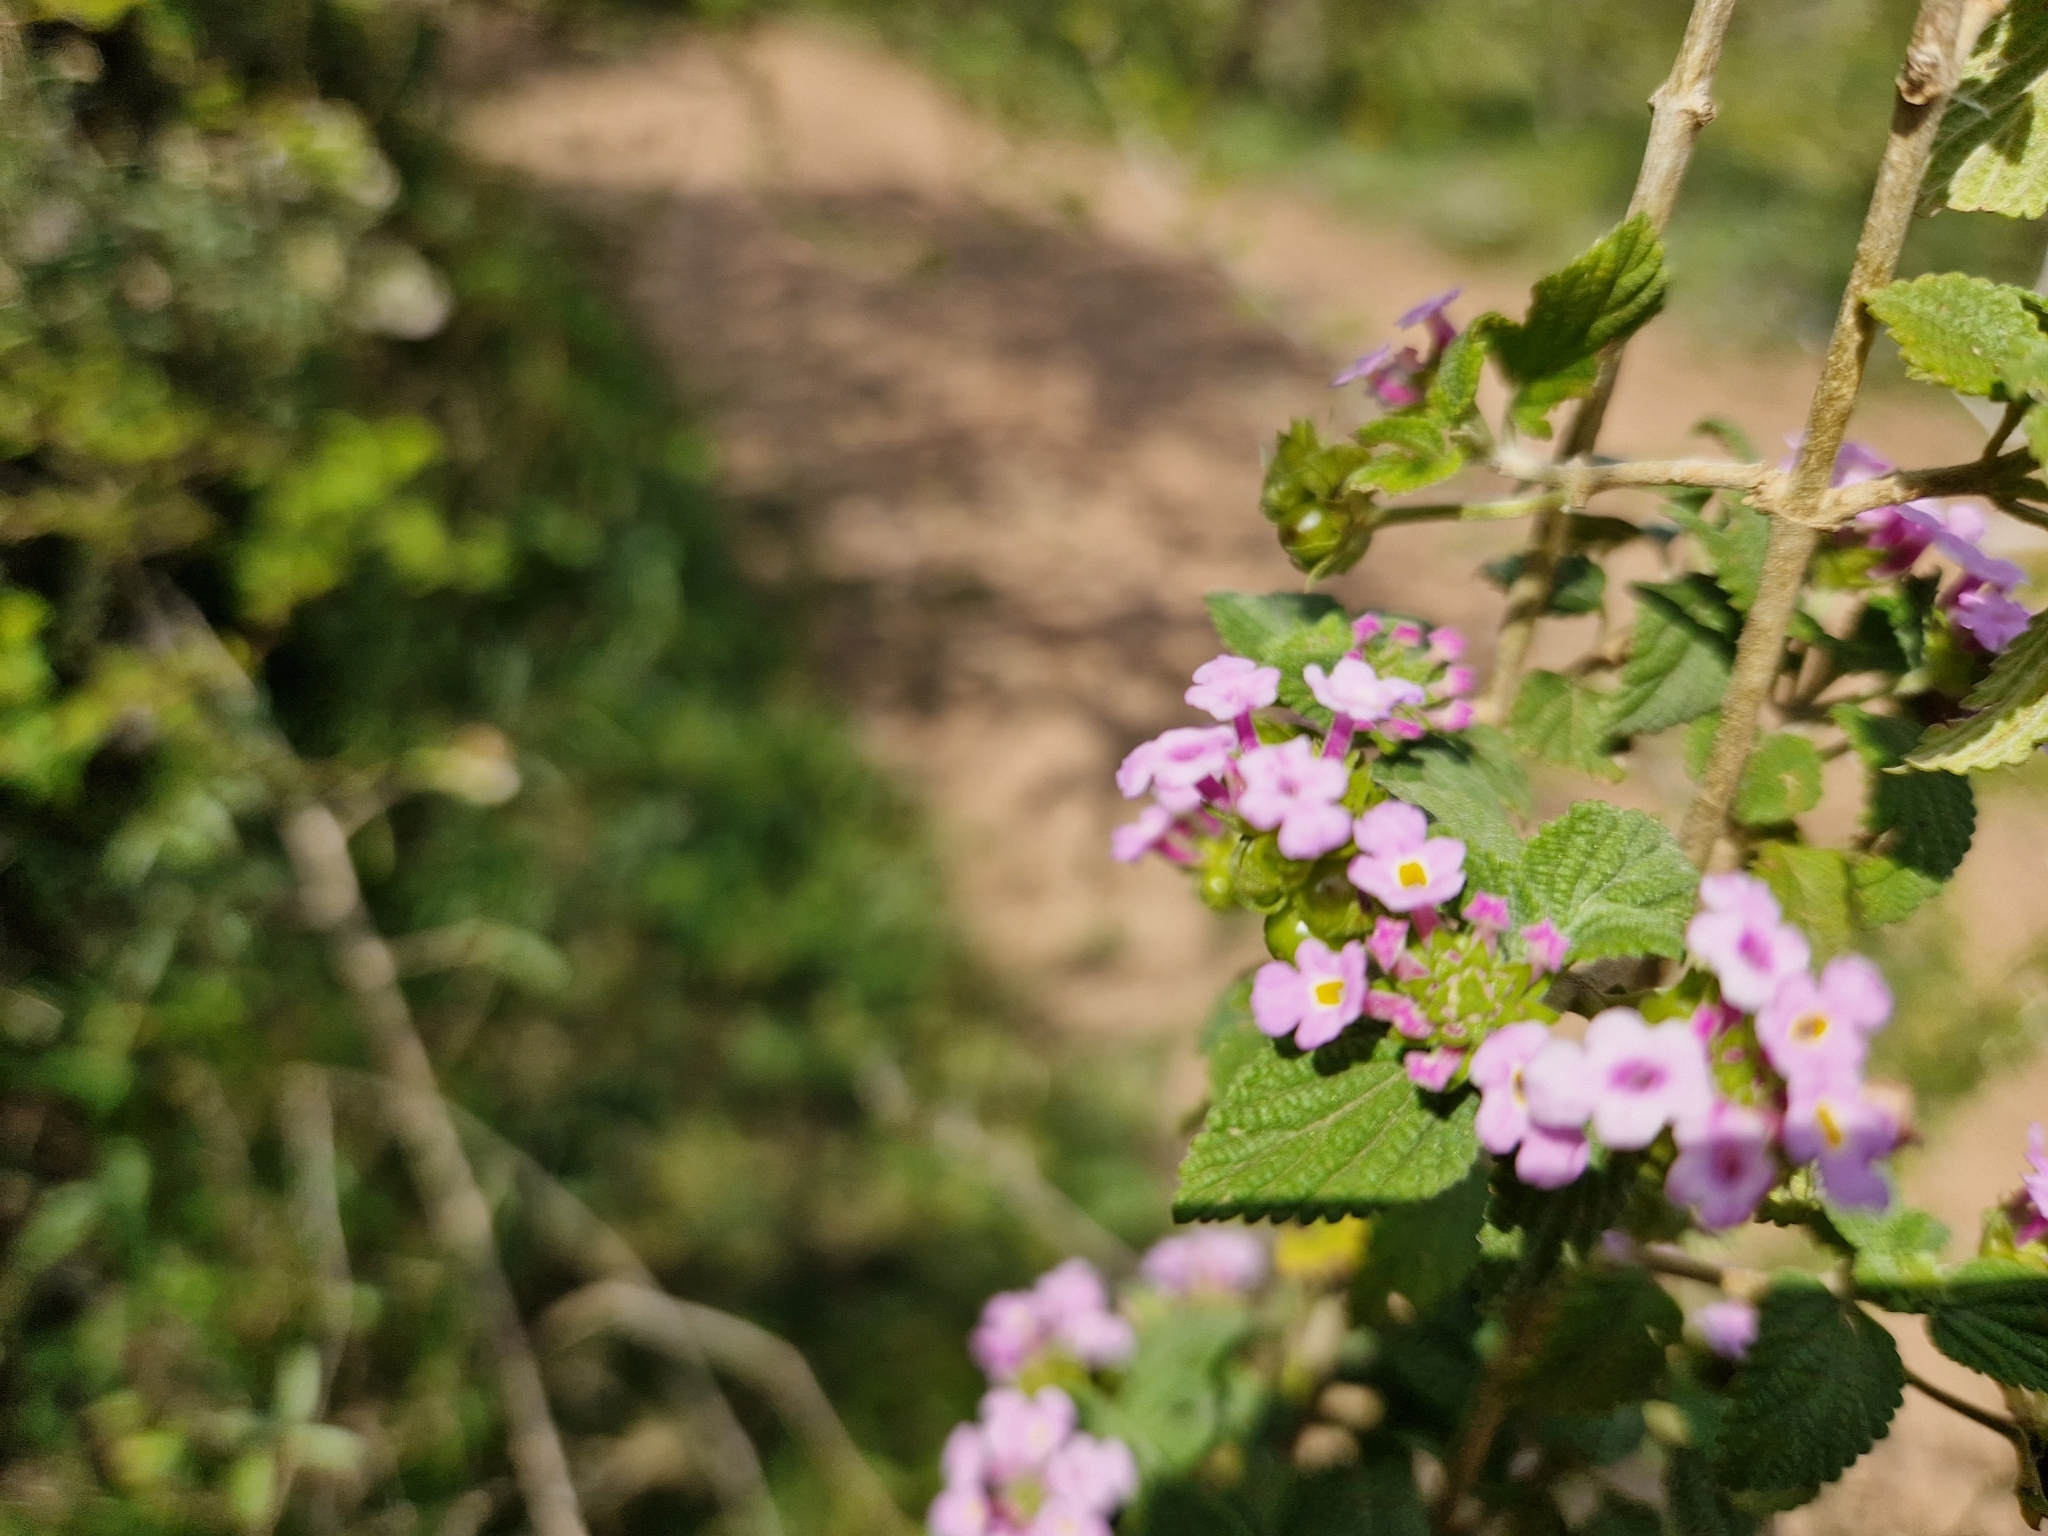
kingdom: Plantae
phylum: Tracheophyta
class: Magnoliopsida
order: Lamiales
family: Verbenaceae
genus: Lantana
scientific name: Lantana megapotamica
